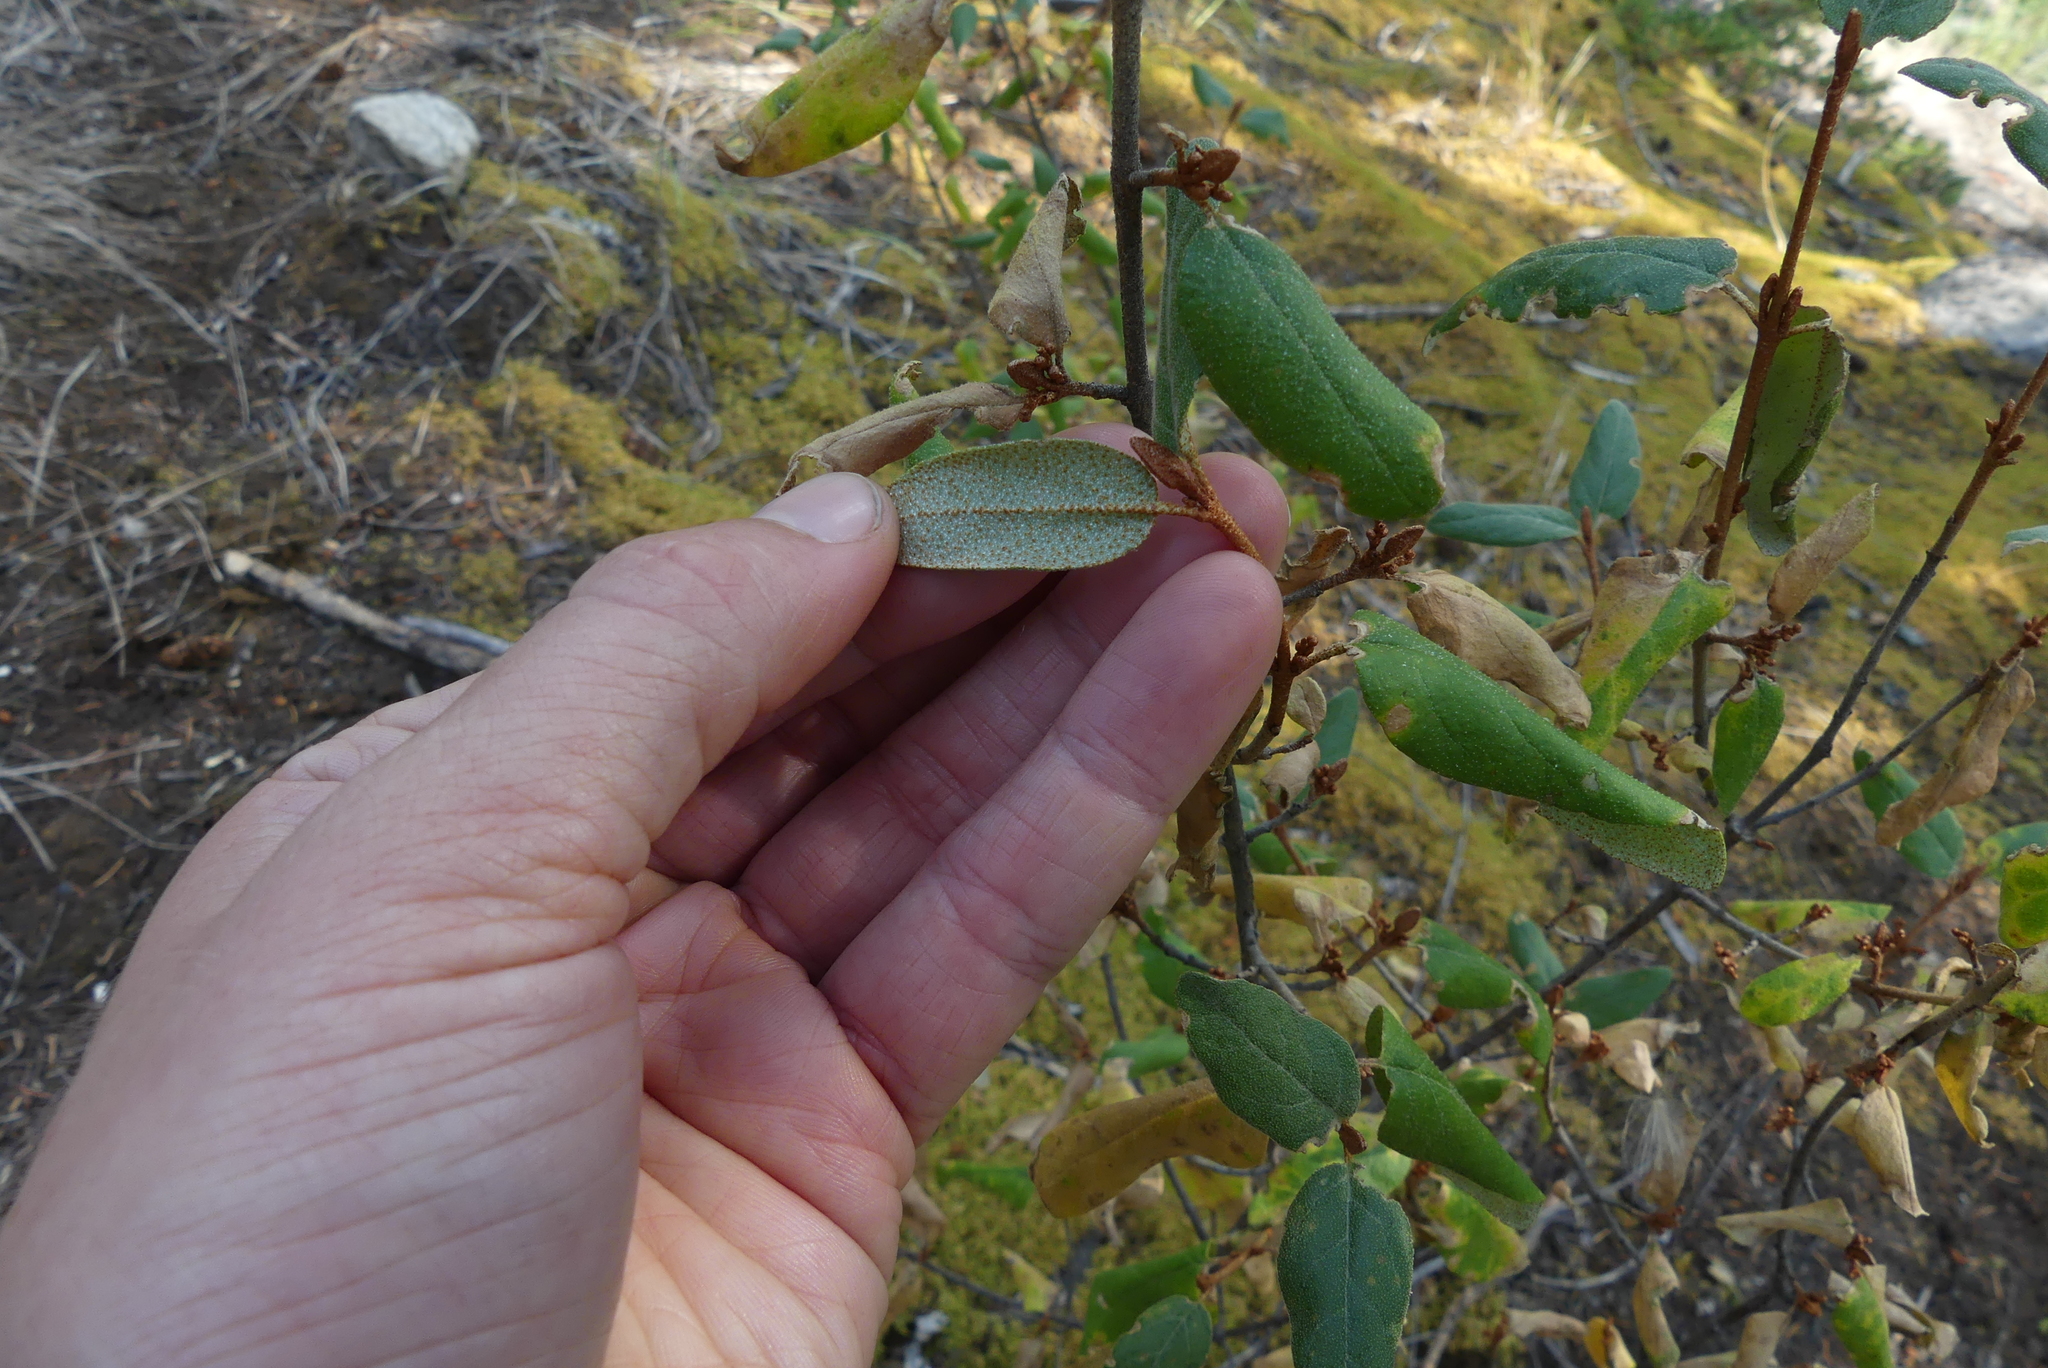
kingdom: Plantae
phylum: Tracheophyta
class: Magnoliopsida
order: Rosales
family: Elaeagnaceae
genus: Shepherdia
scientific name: Shepherdia canadensis
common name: Soapberry
